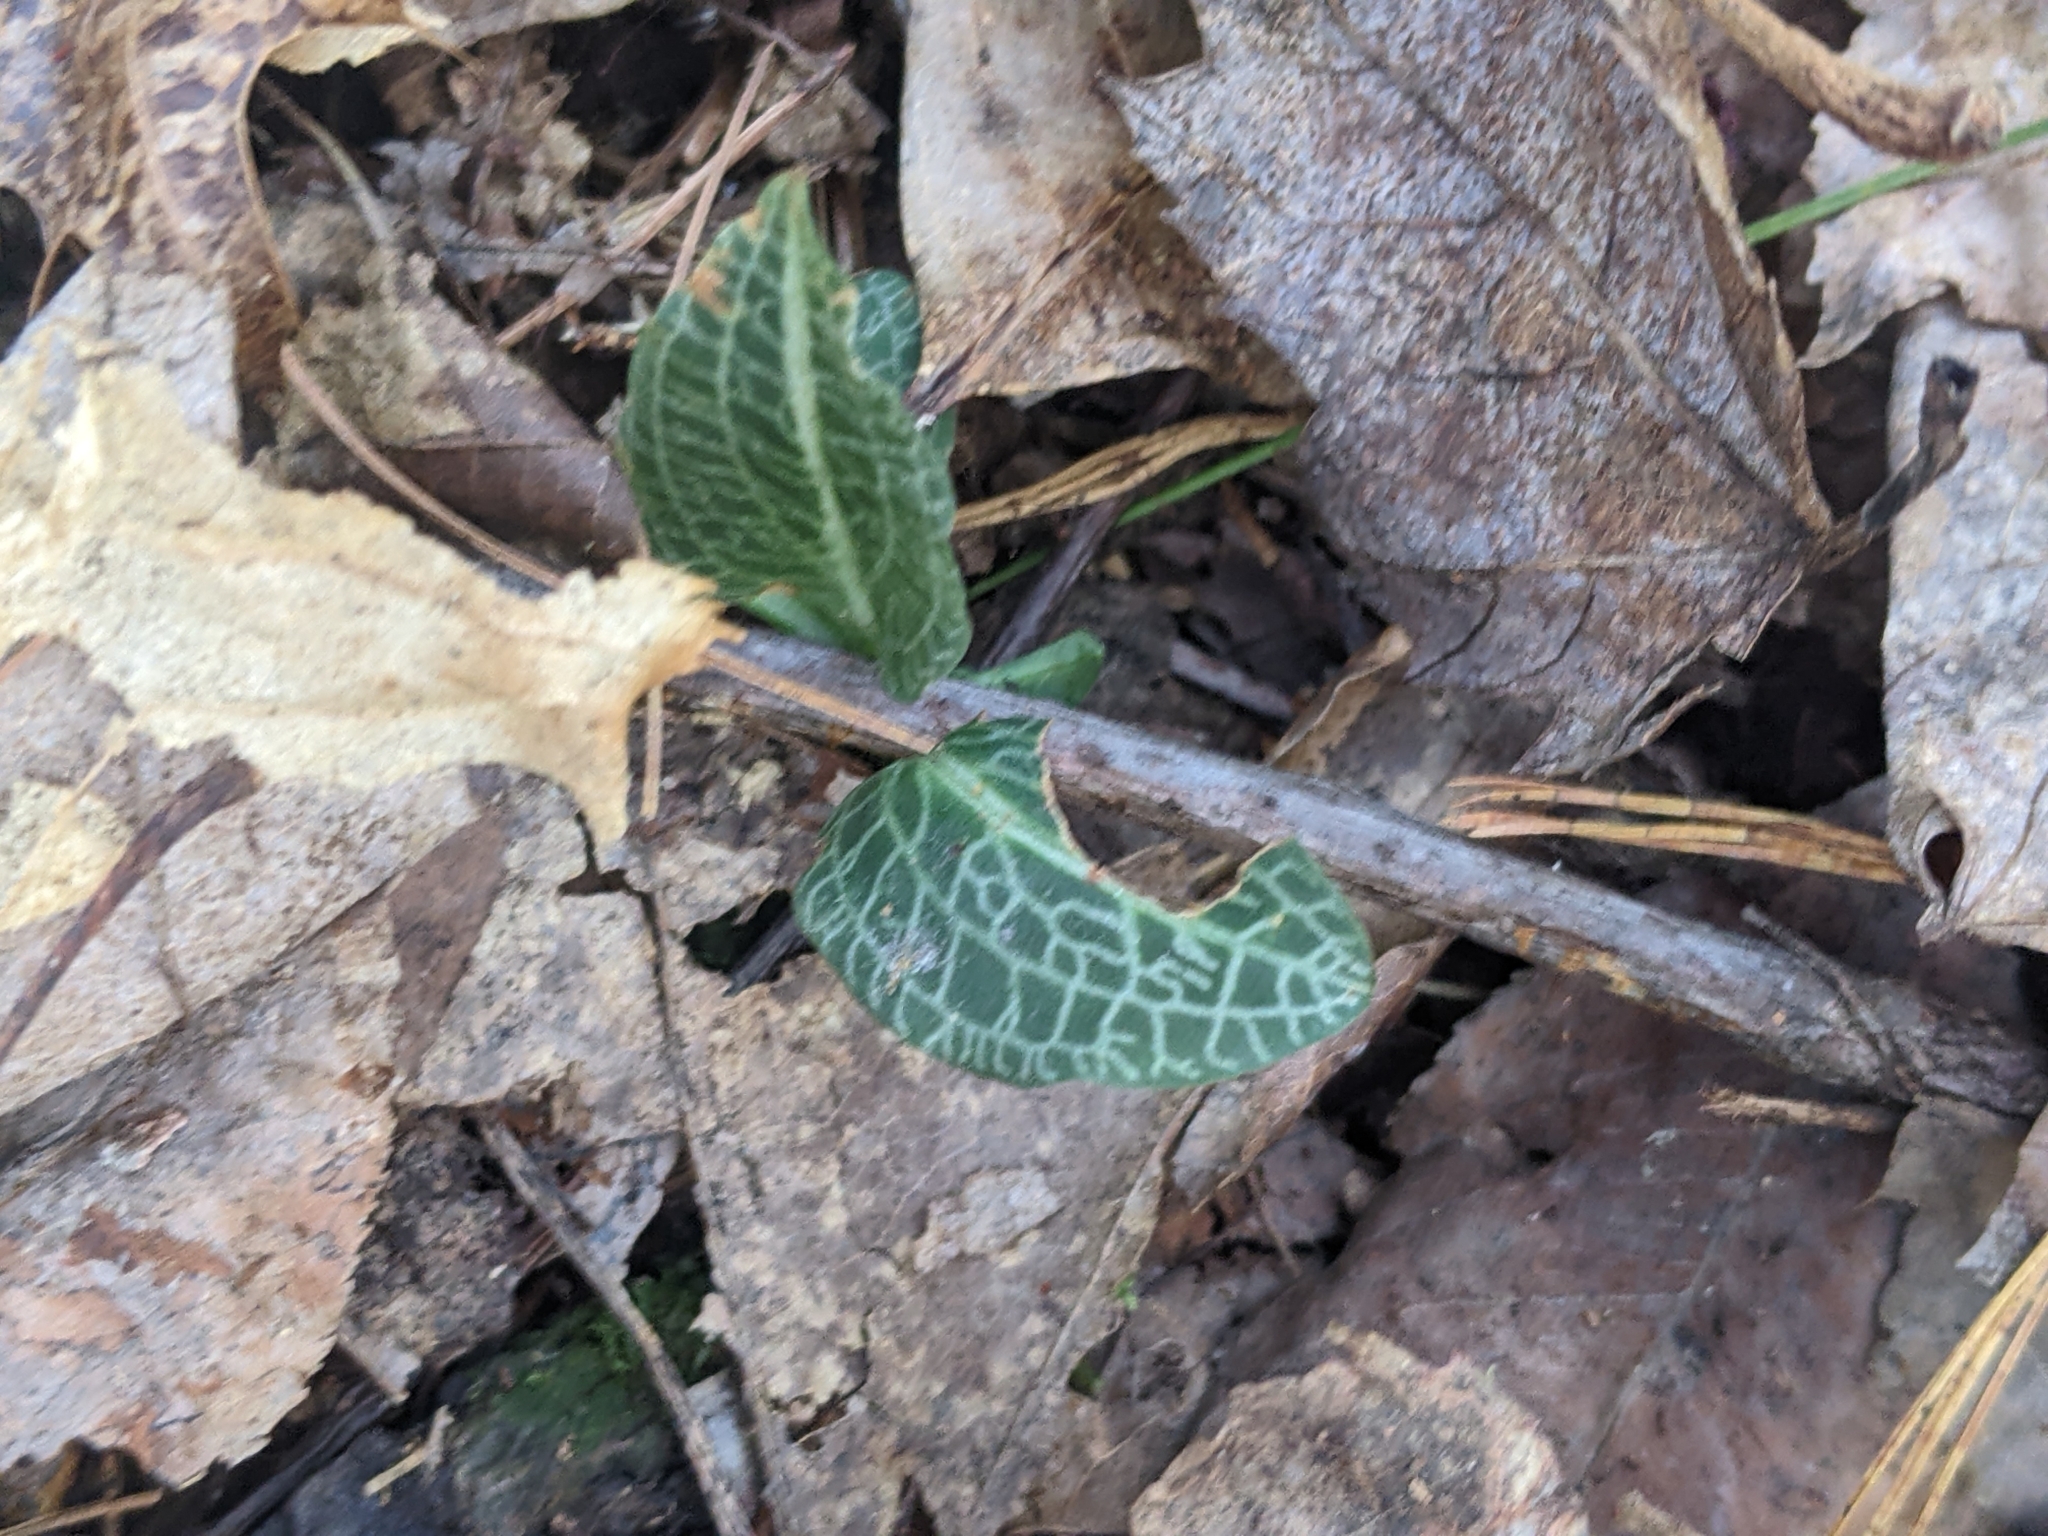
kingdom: Plantae
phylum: Tracheophyta
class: Liliopsida
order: Asparagales
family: Orchidaceae
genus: Goodyera
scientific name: Goodyera pubescens
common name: Downy rattlesnake-plantain
